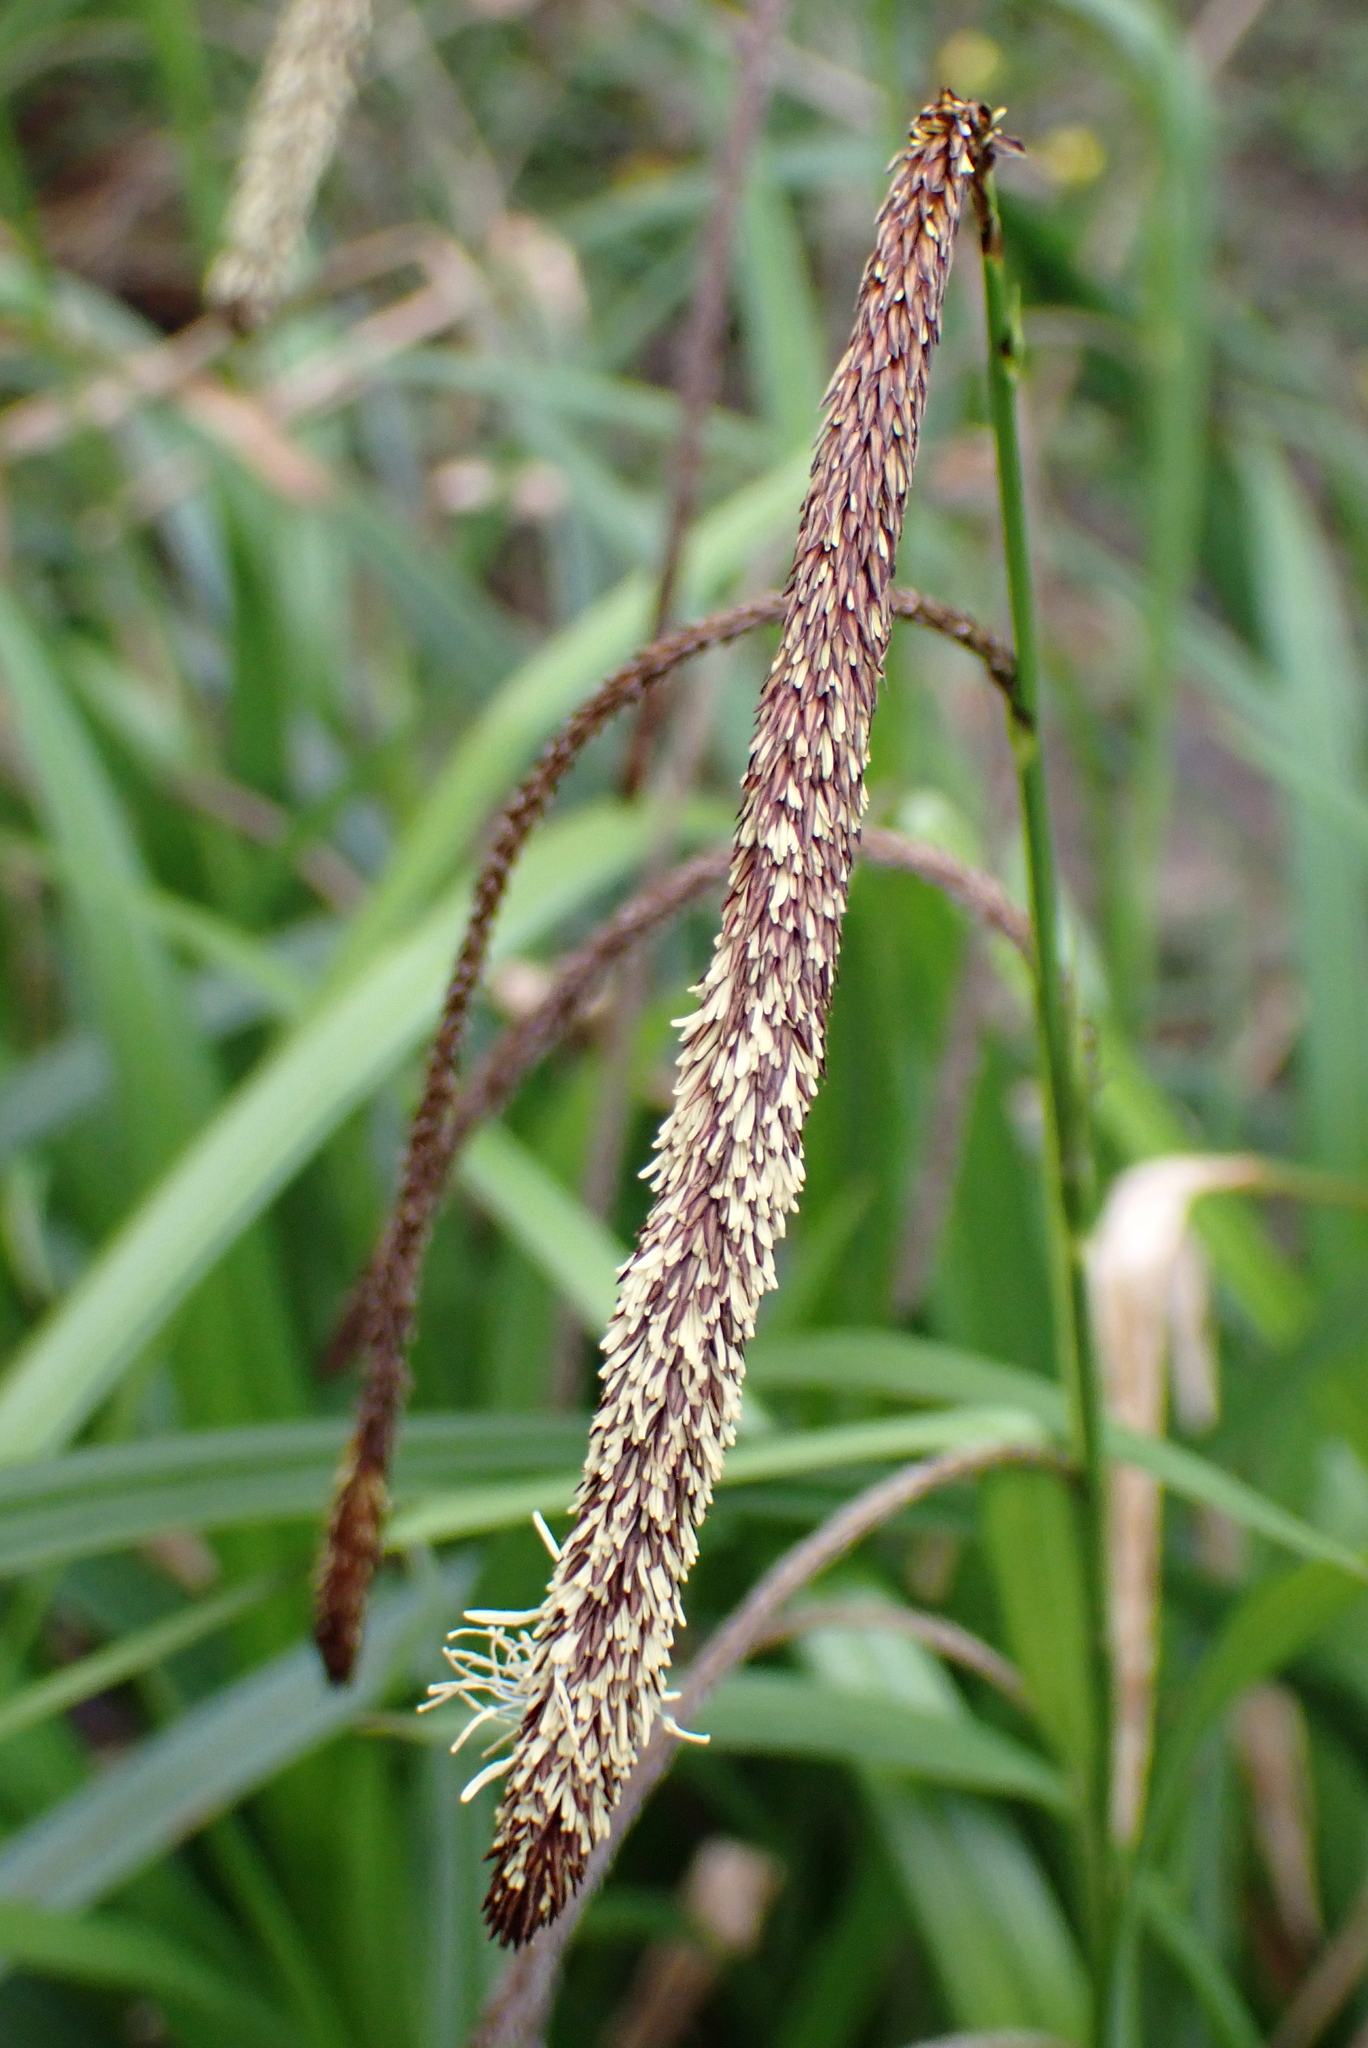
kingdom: Plantae
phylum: Tracheophyta
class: Liliopsida
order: Poales
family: Cyperaceae
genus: Carex
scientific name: Carex pendula
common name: Pendulous sedge
